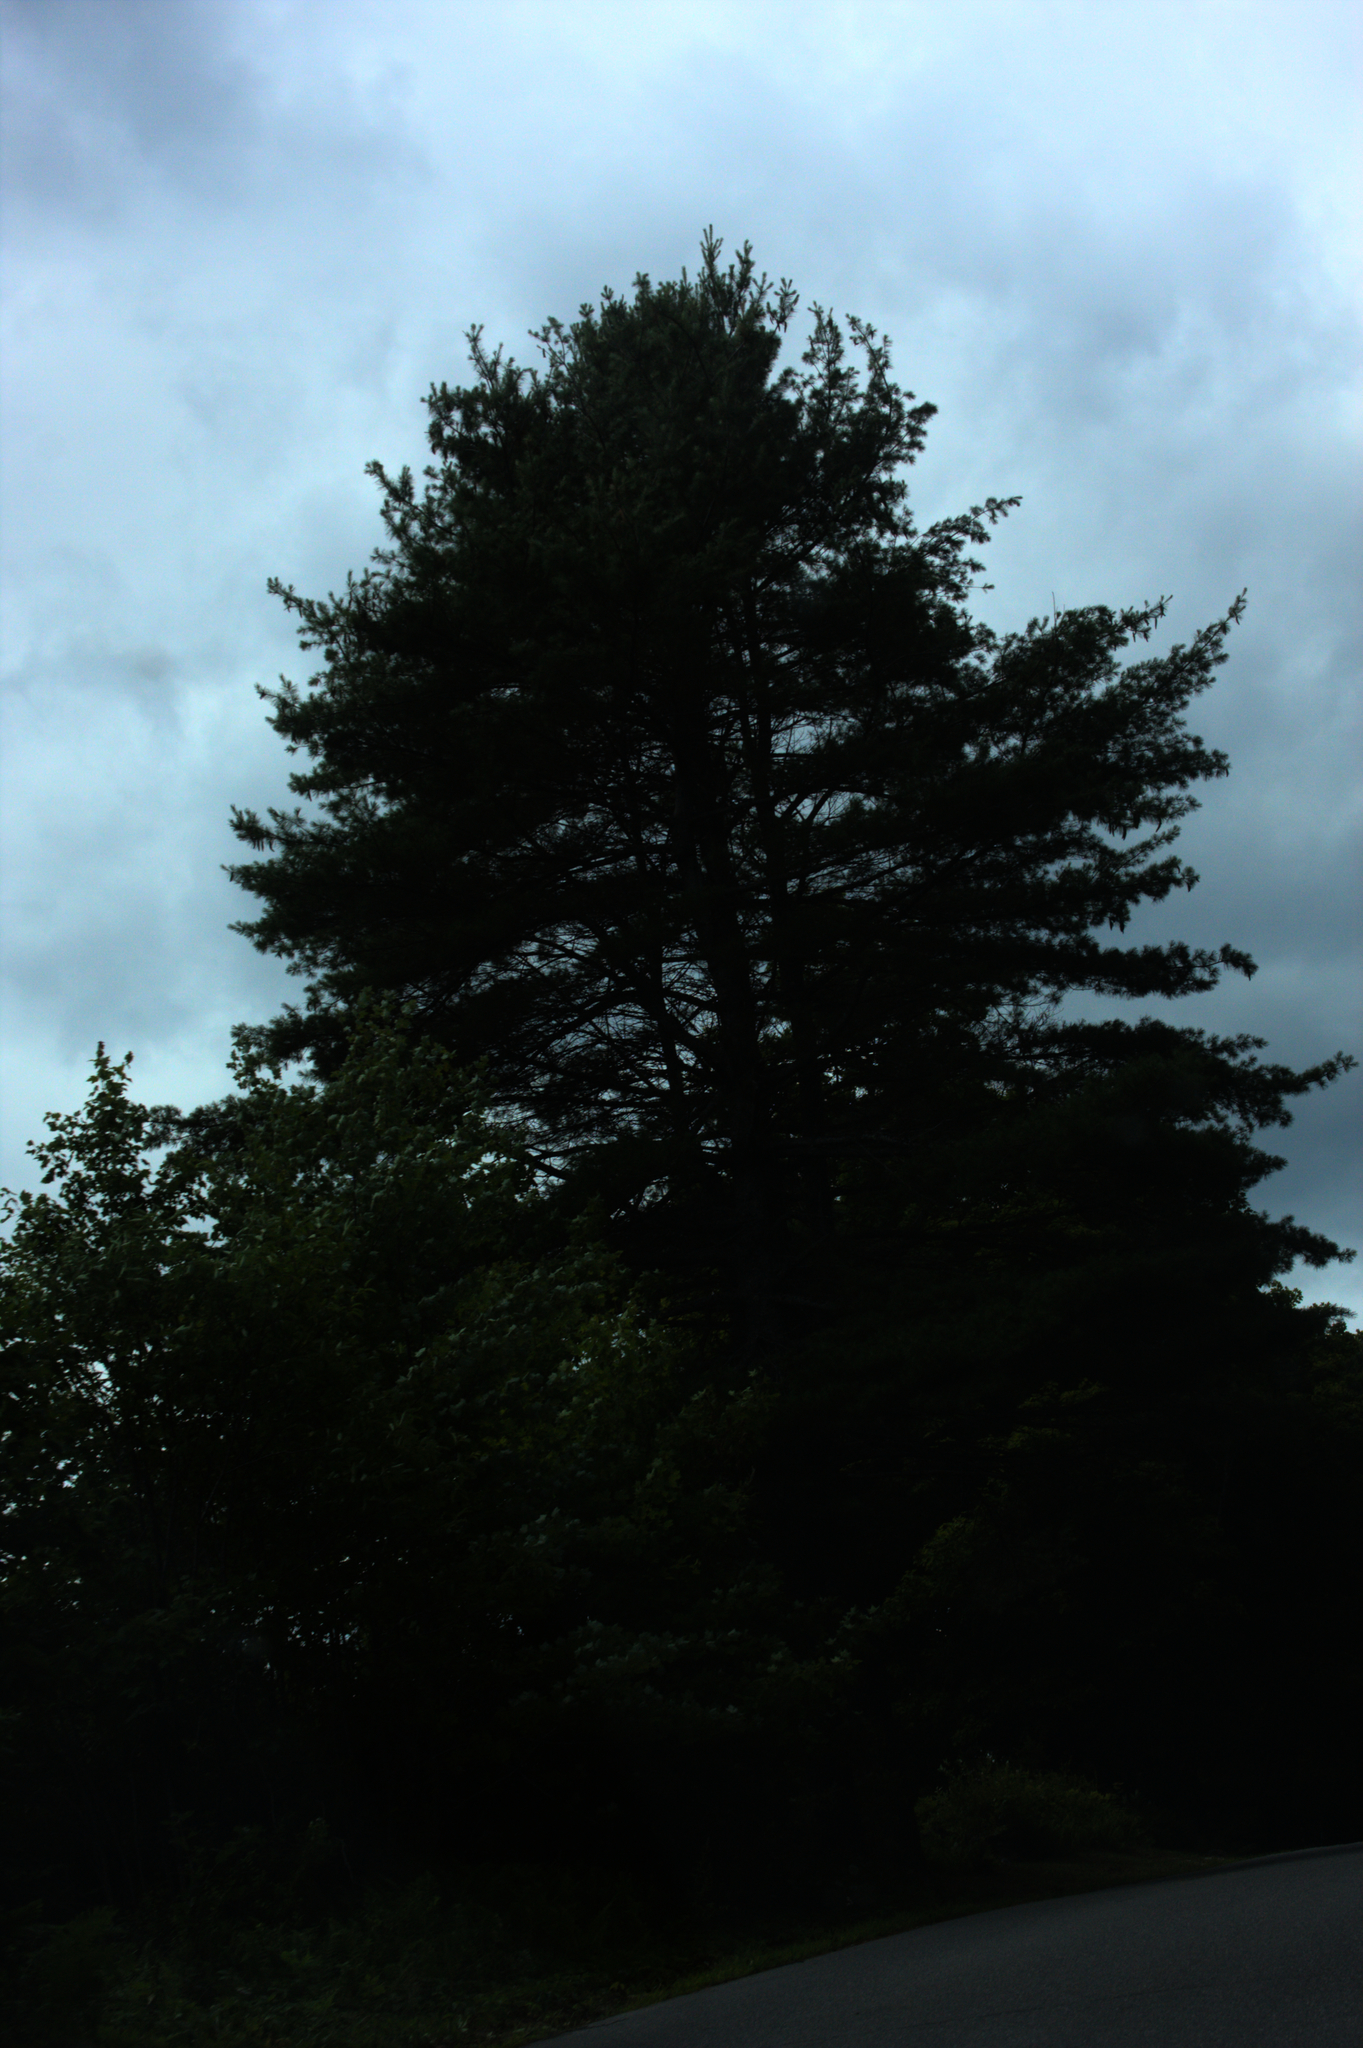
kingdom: Plantae
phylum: Tracheophyta
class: Pinopsida
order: Pinales
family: Pinaceae
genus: Pinus
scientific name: Pinus strobus
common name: Weymouth pine
